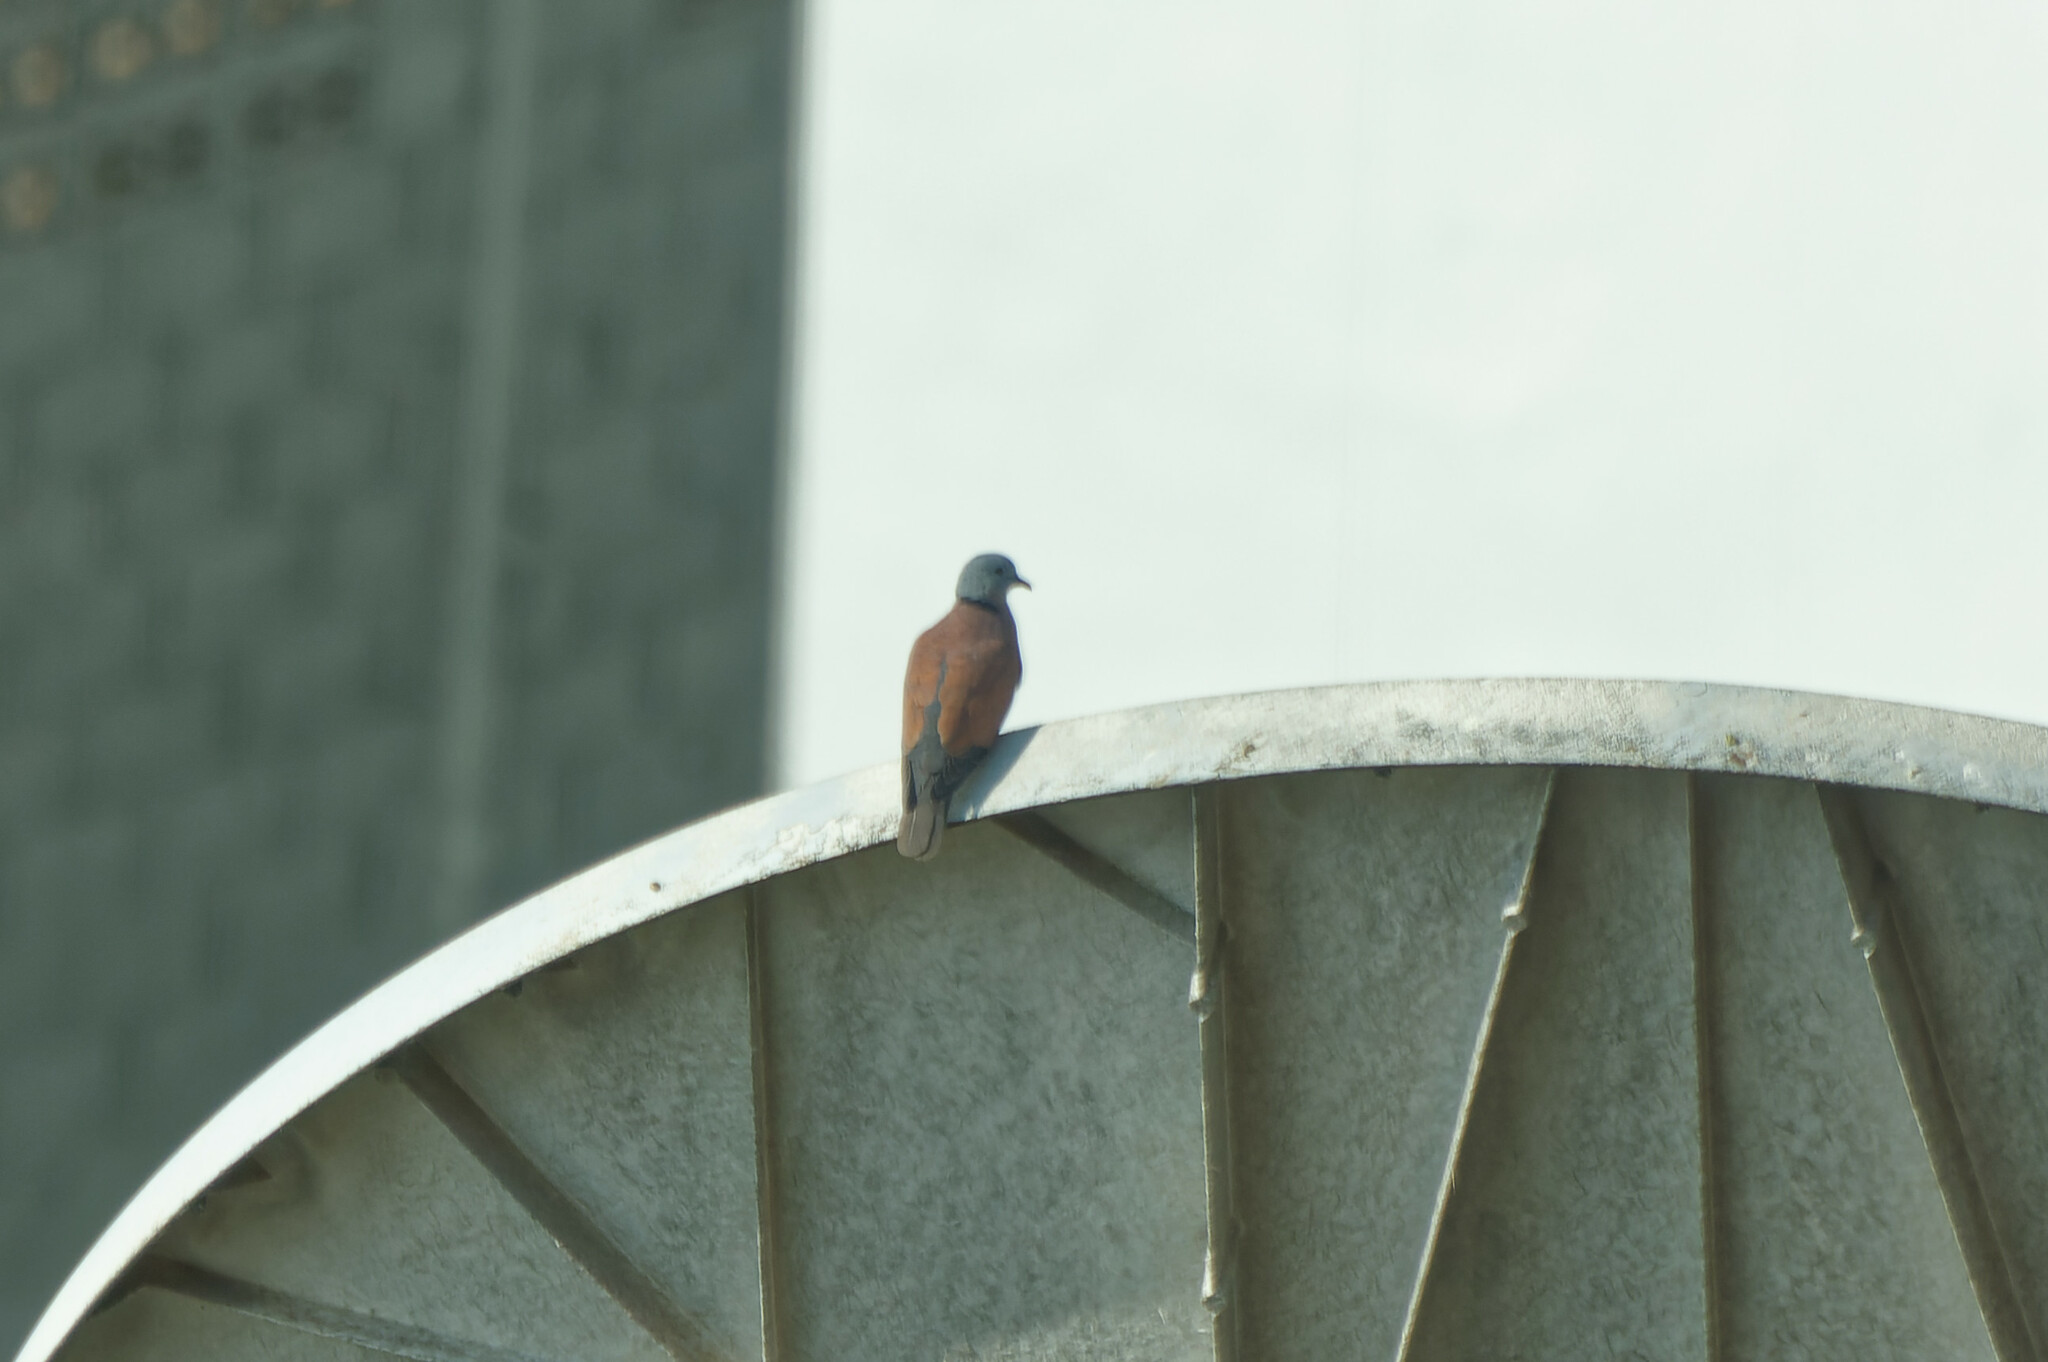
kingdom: Animalia
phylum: Chordata
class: Aves
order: Columbiformes
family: Columbidae
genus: Streptopelia
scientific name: Streptopelia tranquebarica
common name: Red turtle dove
